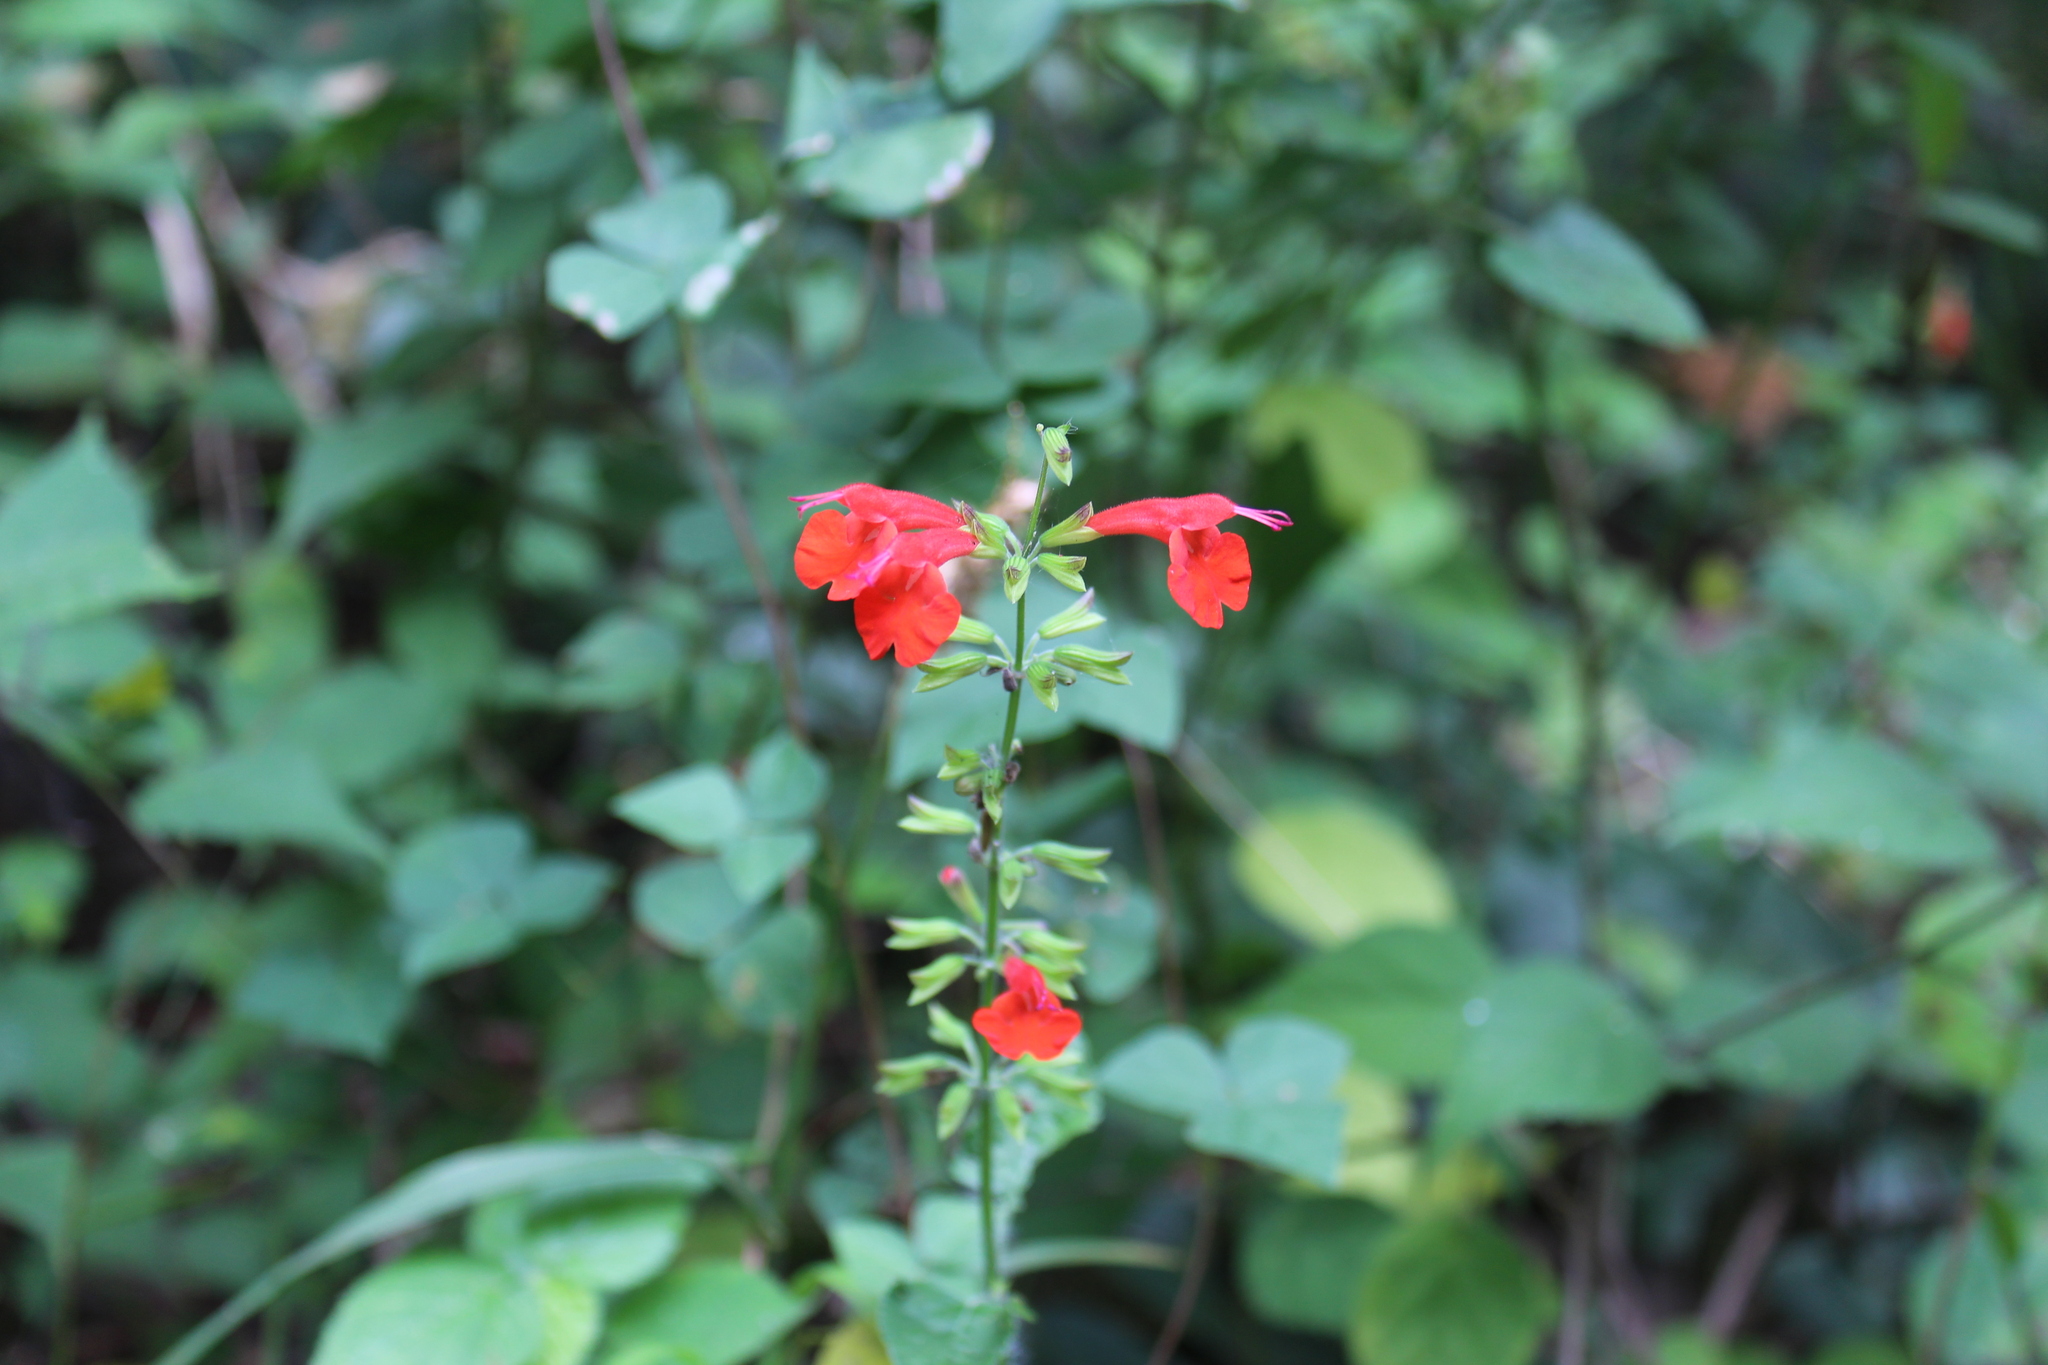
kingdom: Plantae
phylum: Tracheophyta
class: Magnoliopsida
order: Lamiales
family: Lamiaceae
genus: Salvia
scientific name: Salvia coccinea
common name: Blood sage
